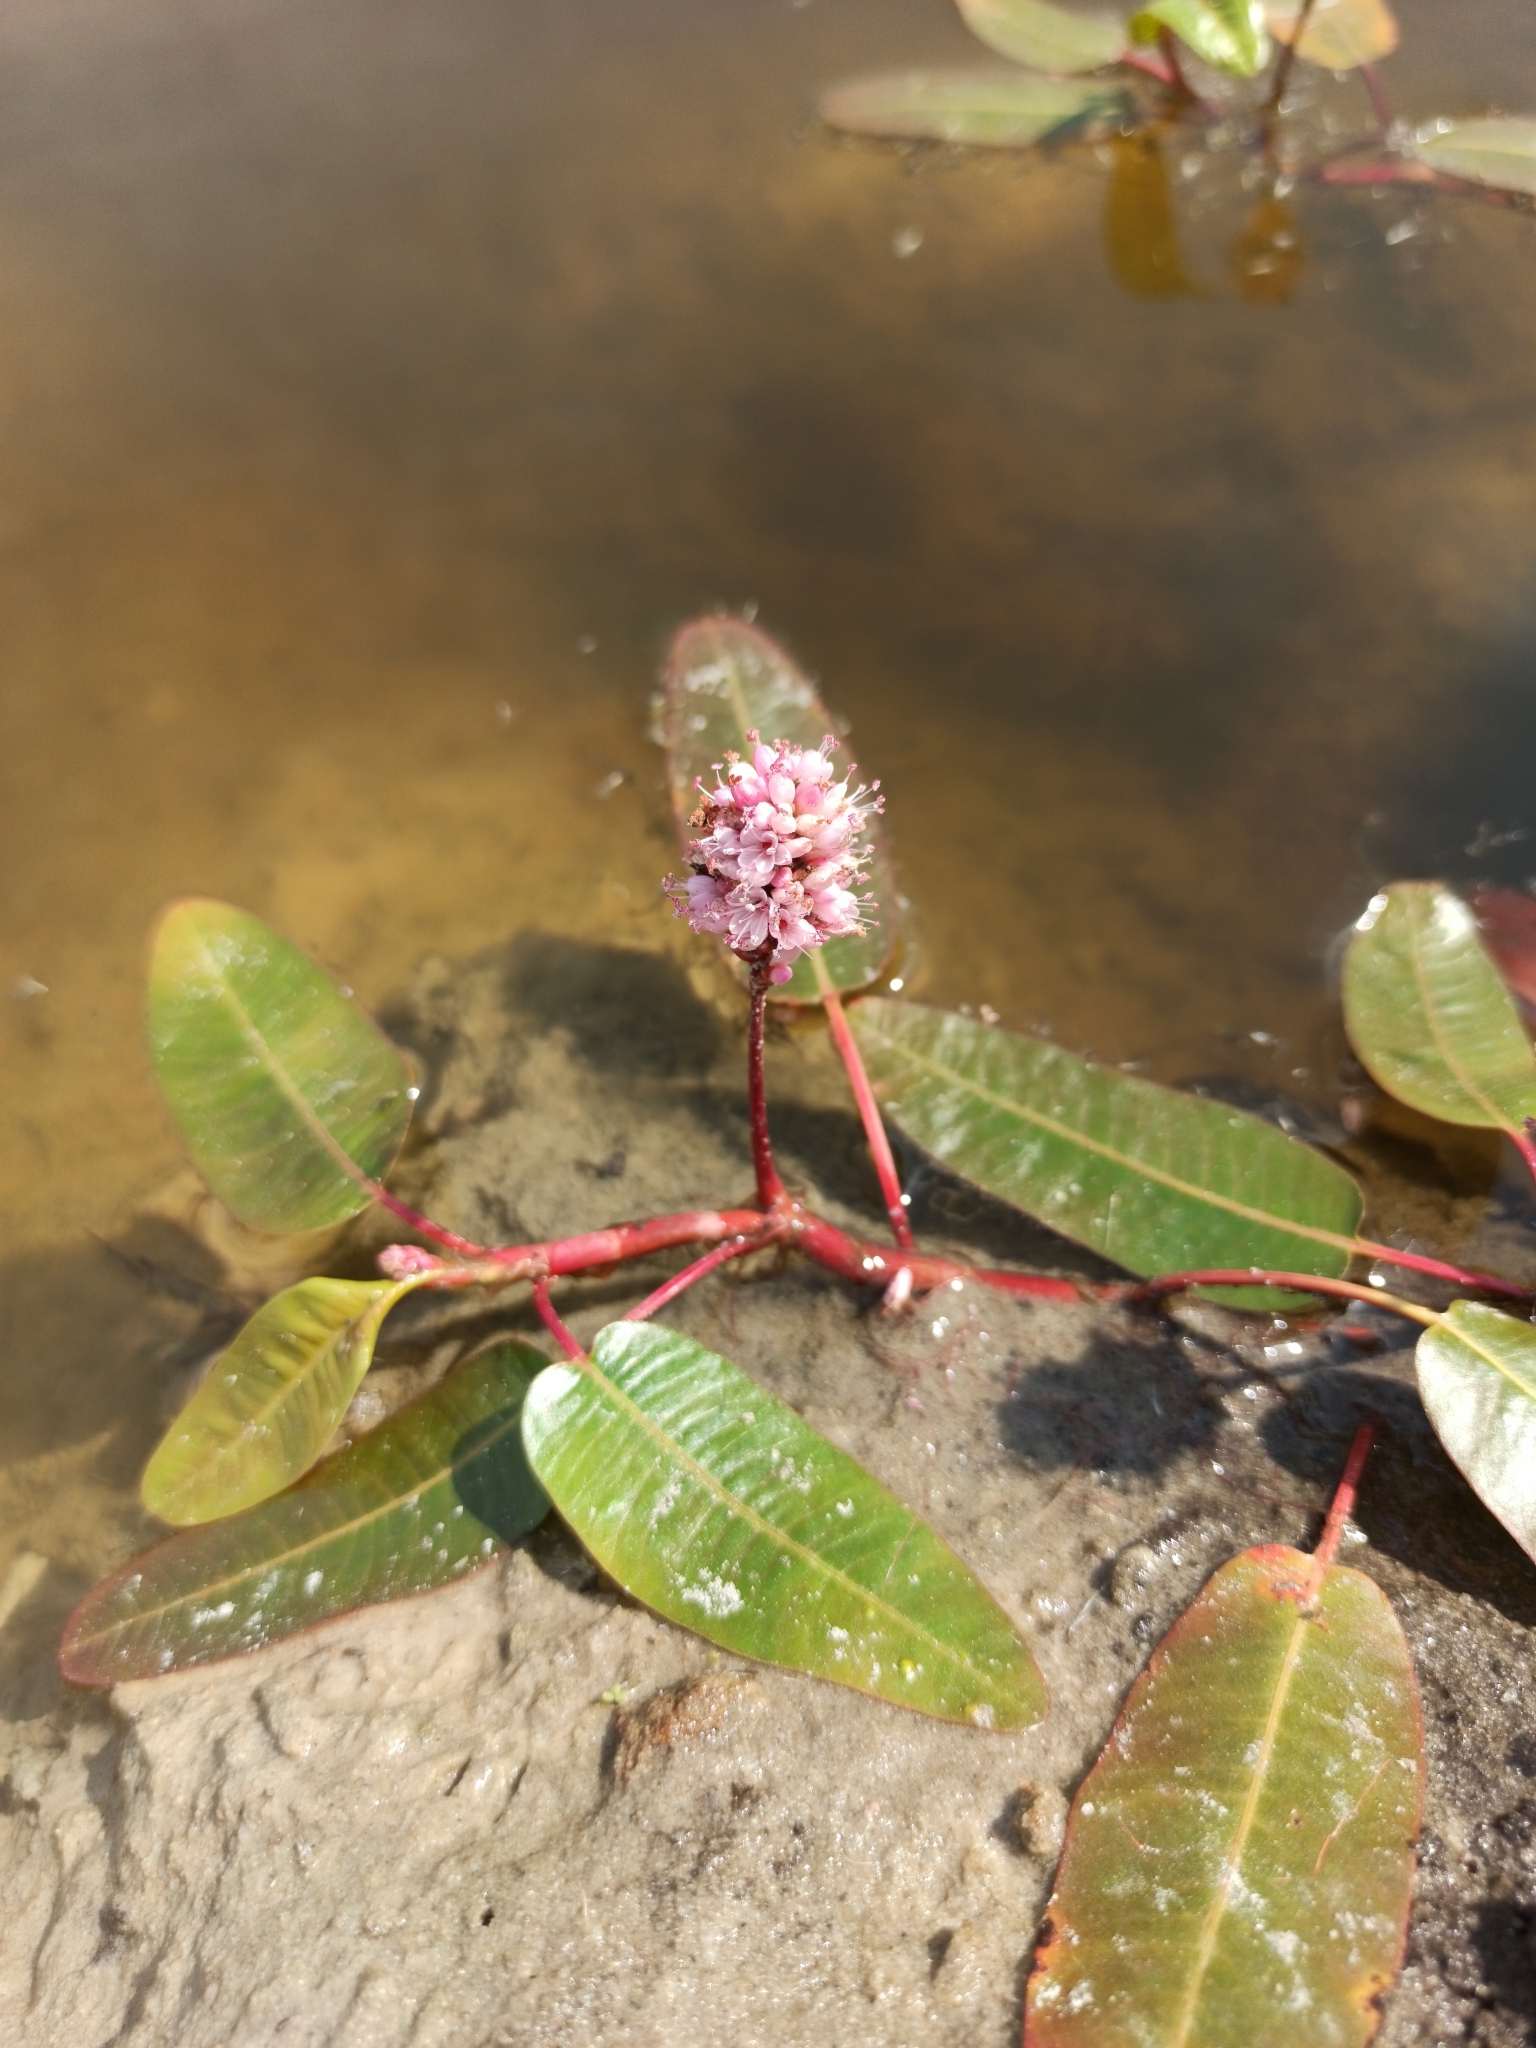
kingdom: Plantae
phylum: Tracheophyta
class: Magnoliopsida
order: Caryophyllales
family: Polygonaceae
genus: Persicaria
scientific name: Persicaria amphibia
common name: Amphibious bistort
